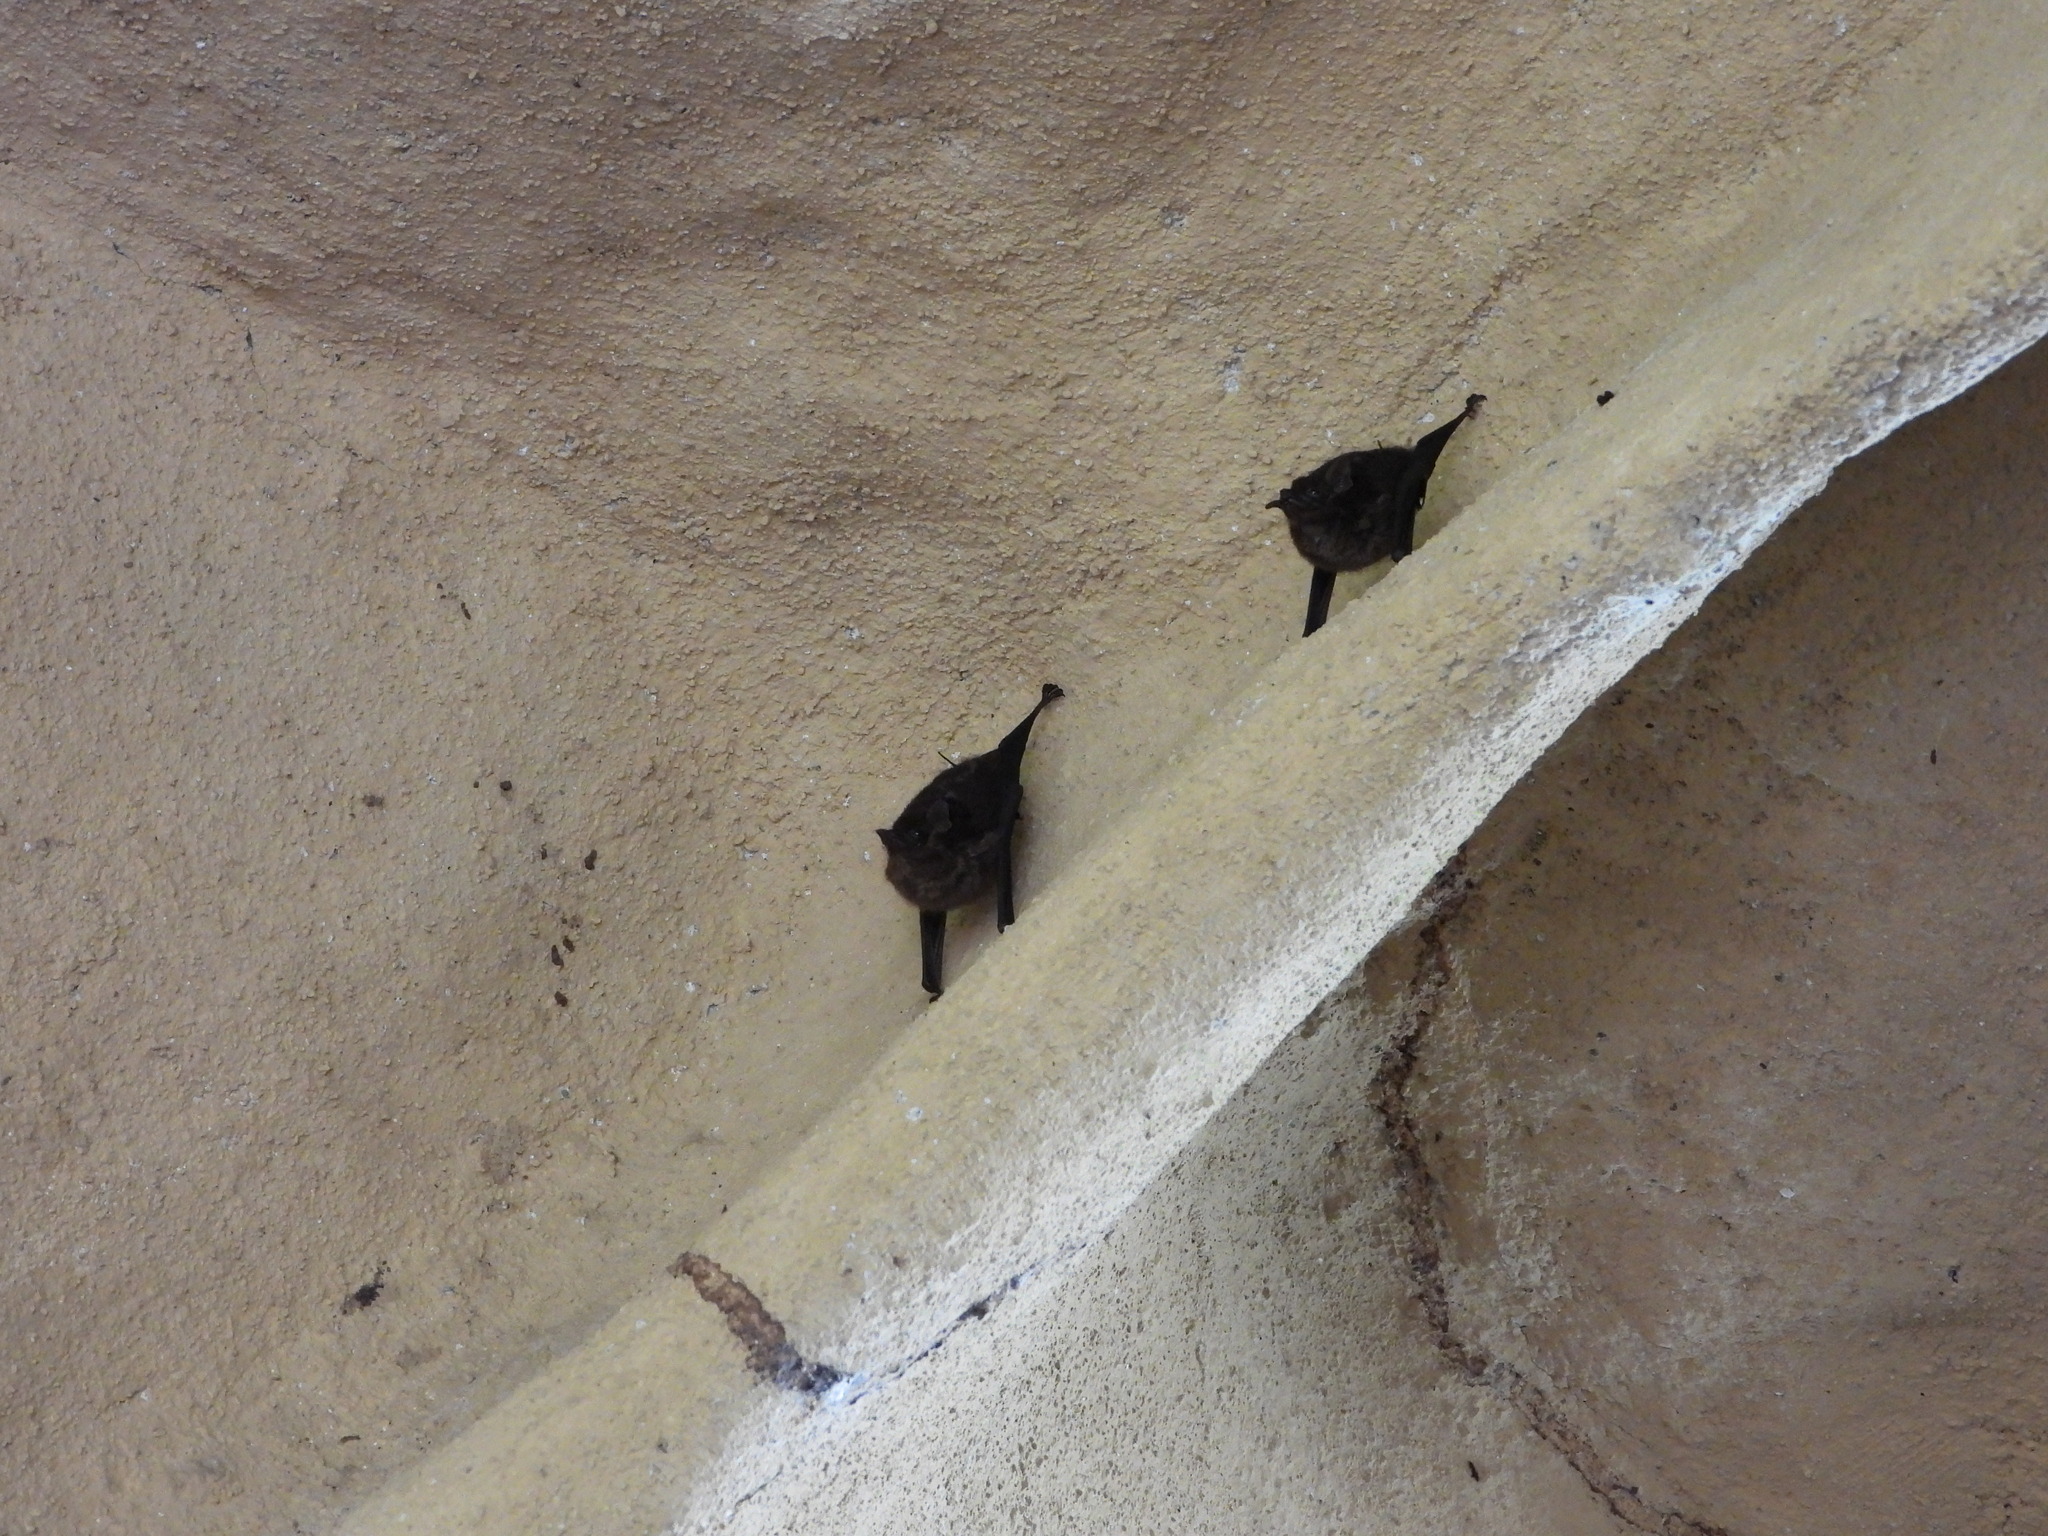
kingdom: Animalia
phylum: Chordata
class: Mammalia
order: Chiroptera
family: Emballonuridae
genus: Saccopteryx
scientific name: Saccopteryx bilineata
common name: Greater sac-winged bat
